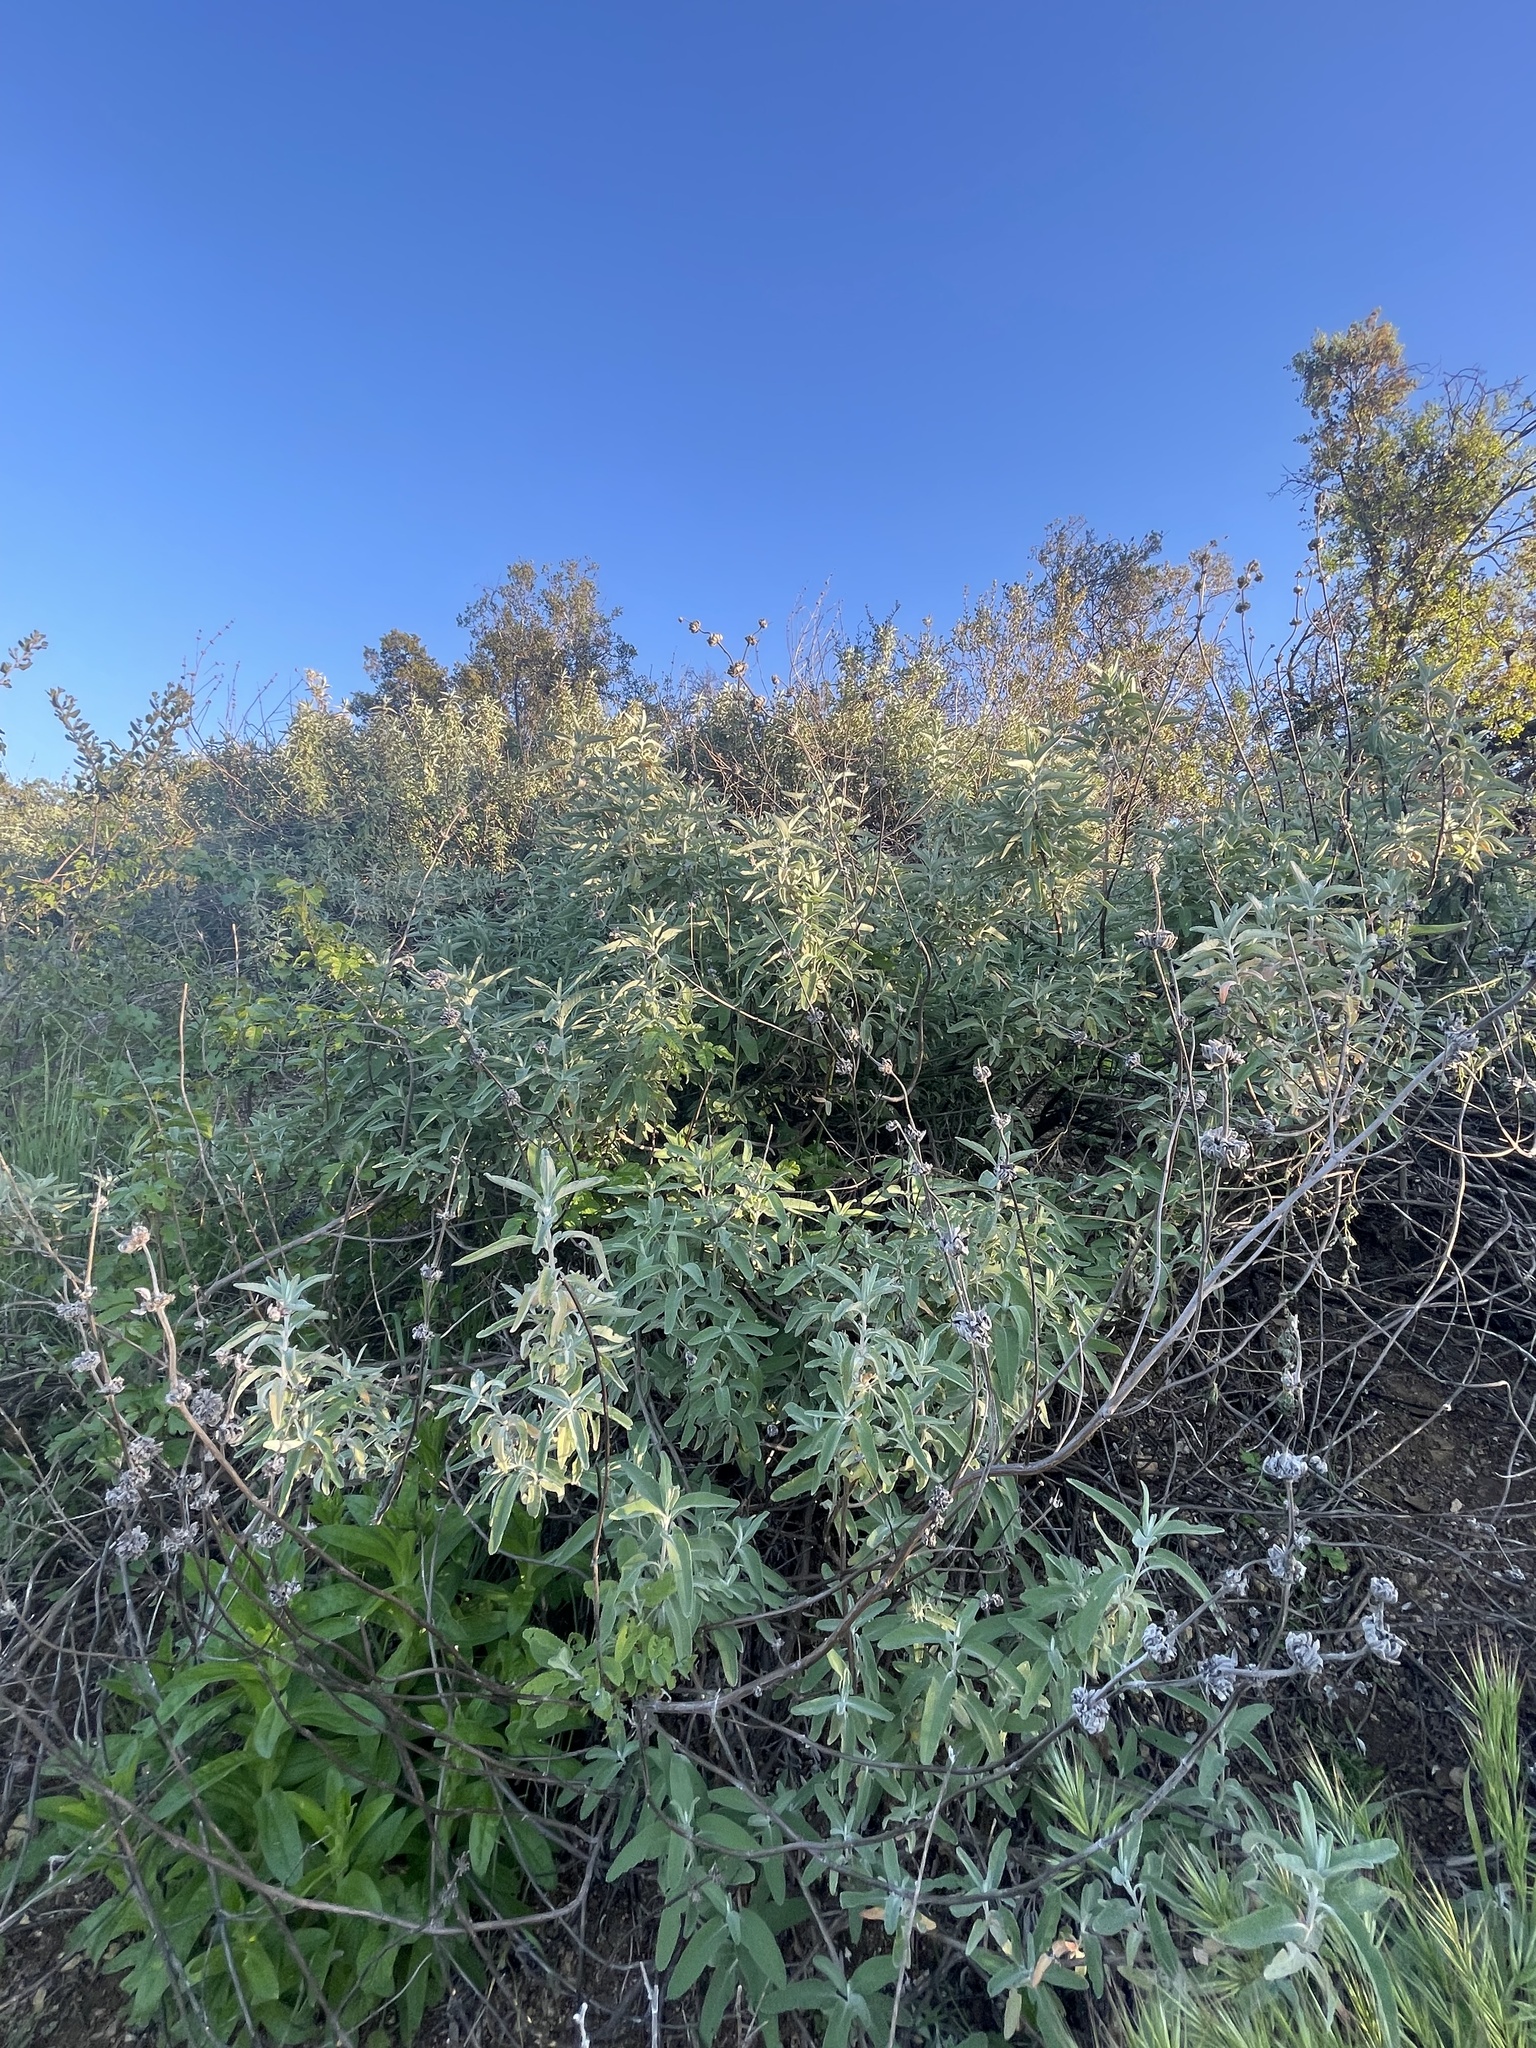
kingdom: Plantae
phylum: Tracheophyta
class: Magnoliopsida
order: Lamiales
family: Lamiaceae
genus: Salvia
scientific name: Salvia leucophylla
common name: Purple sage
